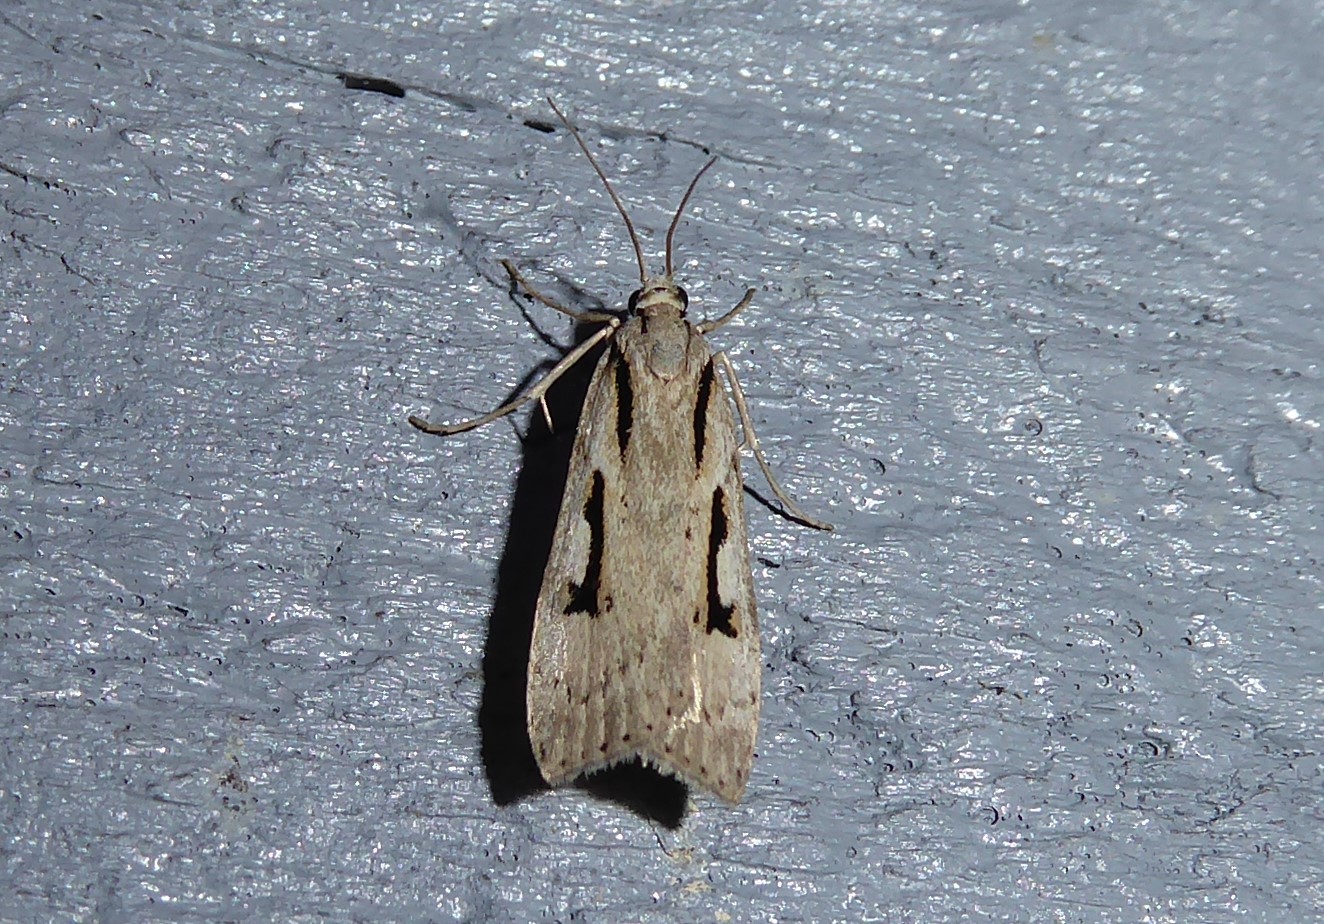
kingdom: Animalia
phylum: Arthropoda
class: Insecta
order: Lepidoptera
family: Crambidae
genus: Scoparia
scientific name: Scoparia rotuellus
